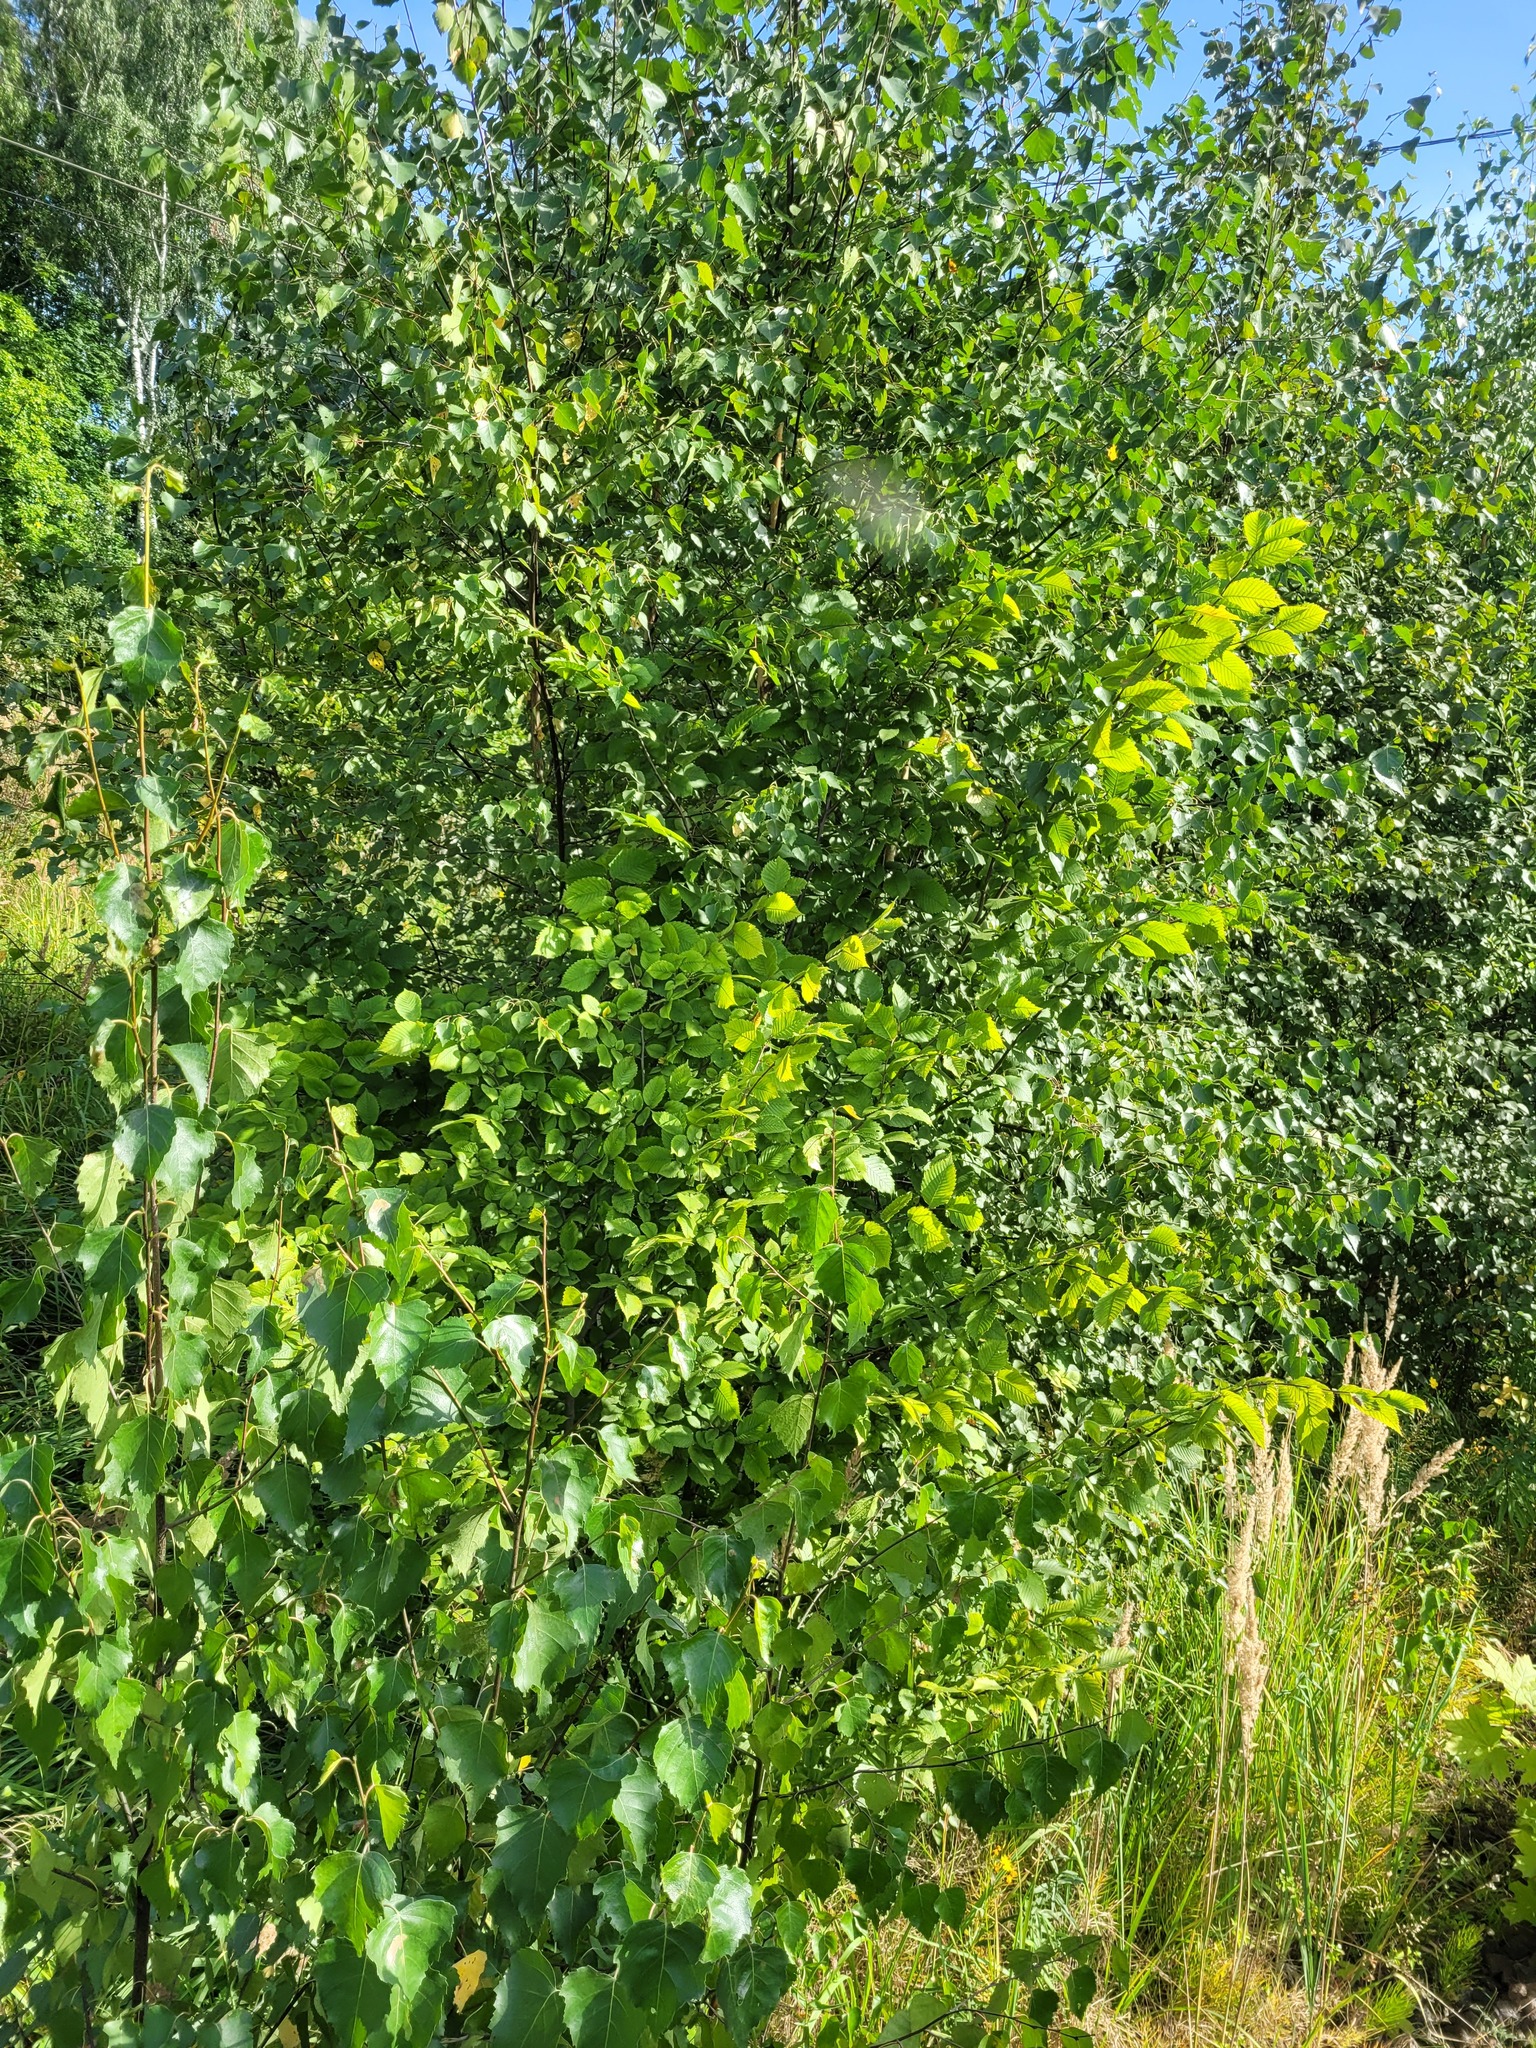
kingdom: Plantae
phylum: Tracheophyta
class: Magnoliopsida
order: Rosales
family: Ulmaceae
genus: Ulmus
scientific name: Ulmus laevis
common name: European white-elm
